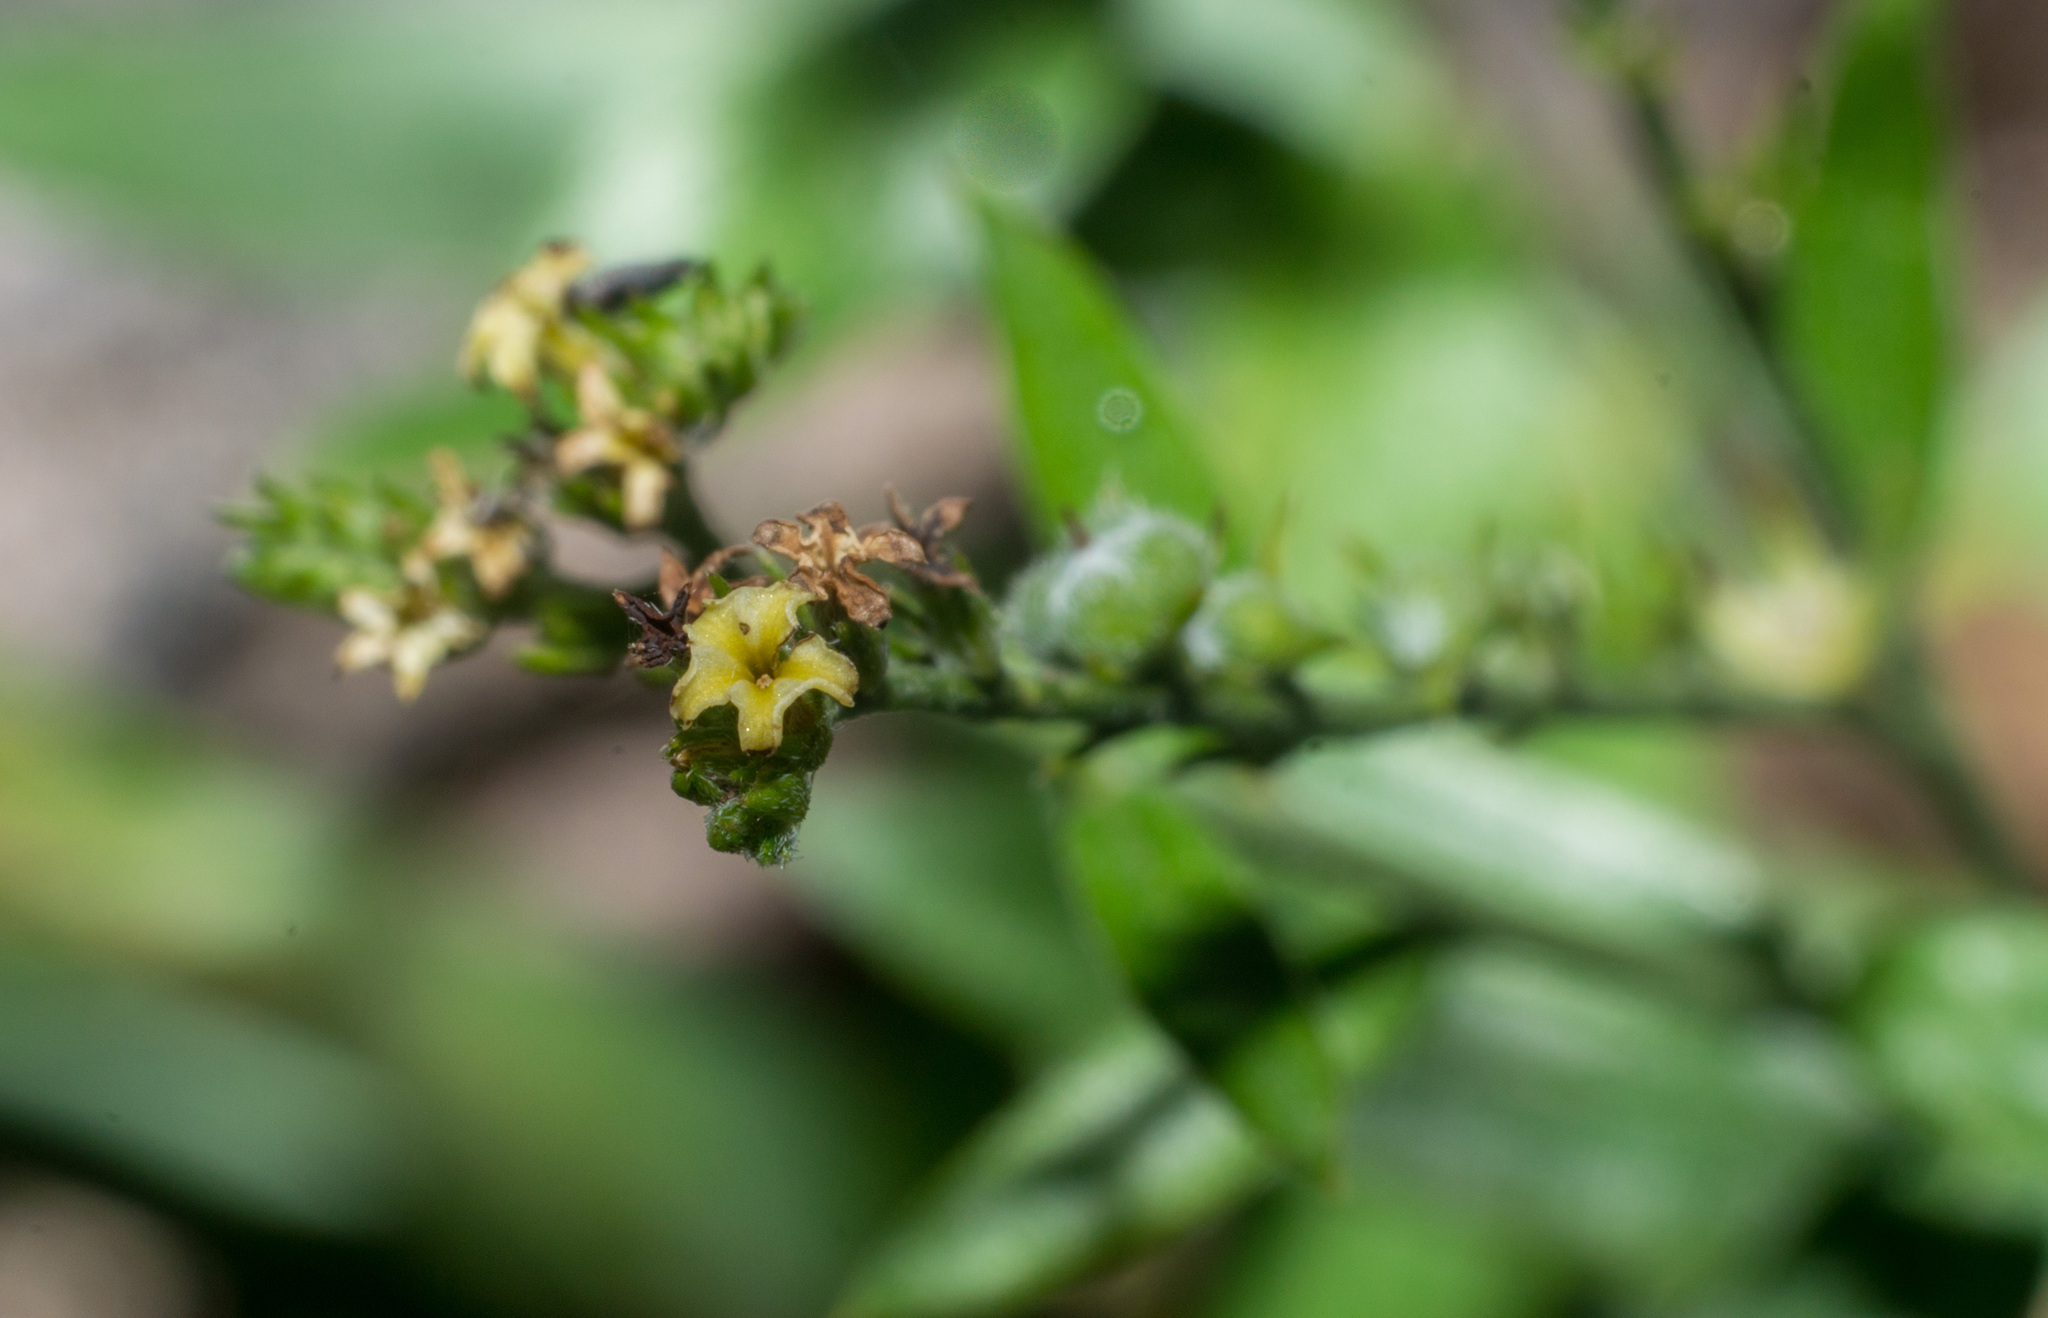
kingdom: Plantae
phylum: Tracheophyta
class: Magnoliopsida
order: Boraginales
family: Heliotropiaceae
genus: Euploca
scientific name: Euploca campestris
